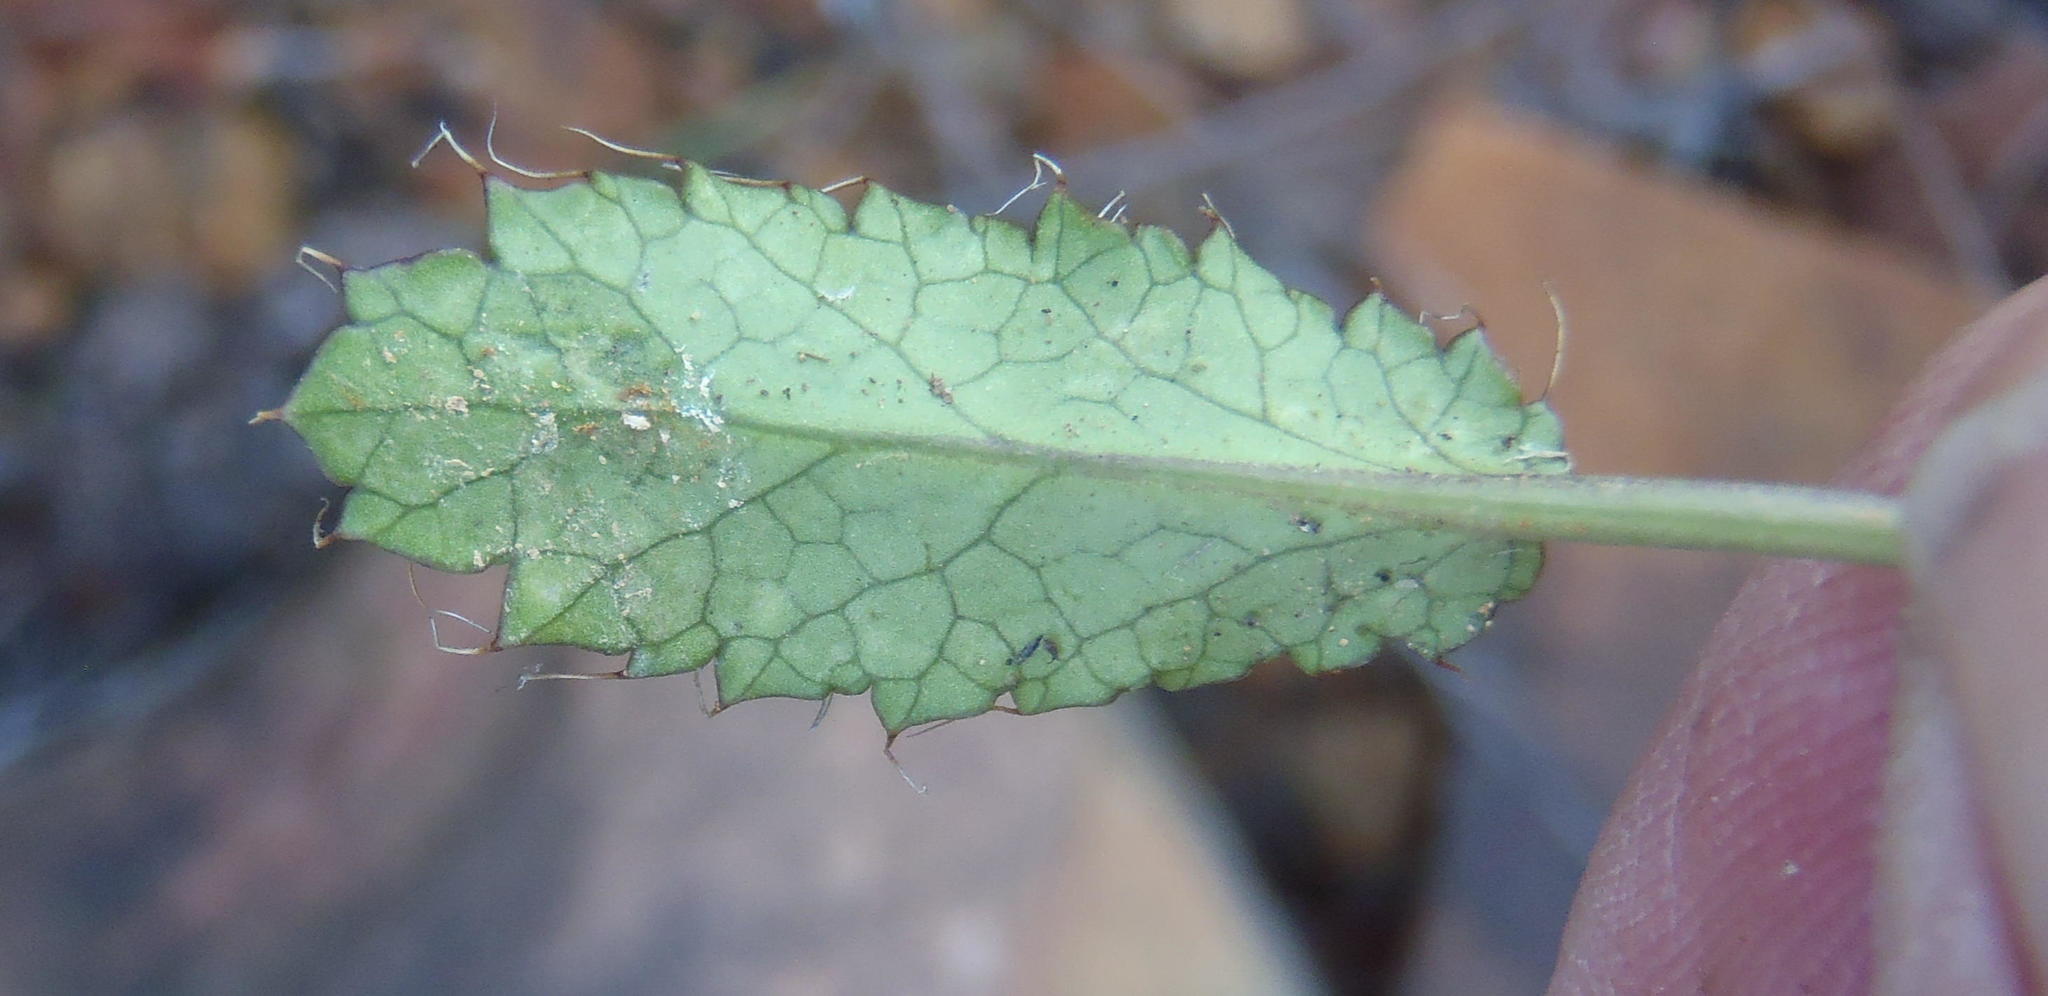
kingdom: Plantae
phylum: Tracheophyta
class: Magnoliopsida
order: Apiales
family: Apiaceae
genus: Alepidea
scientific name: Alepidea delicatula
